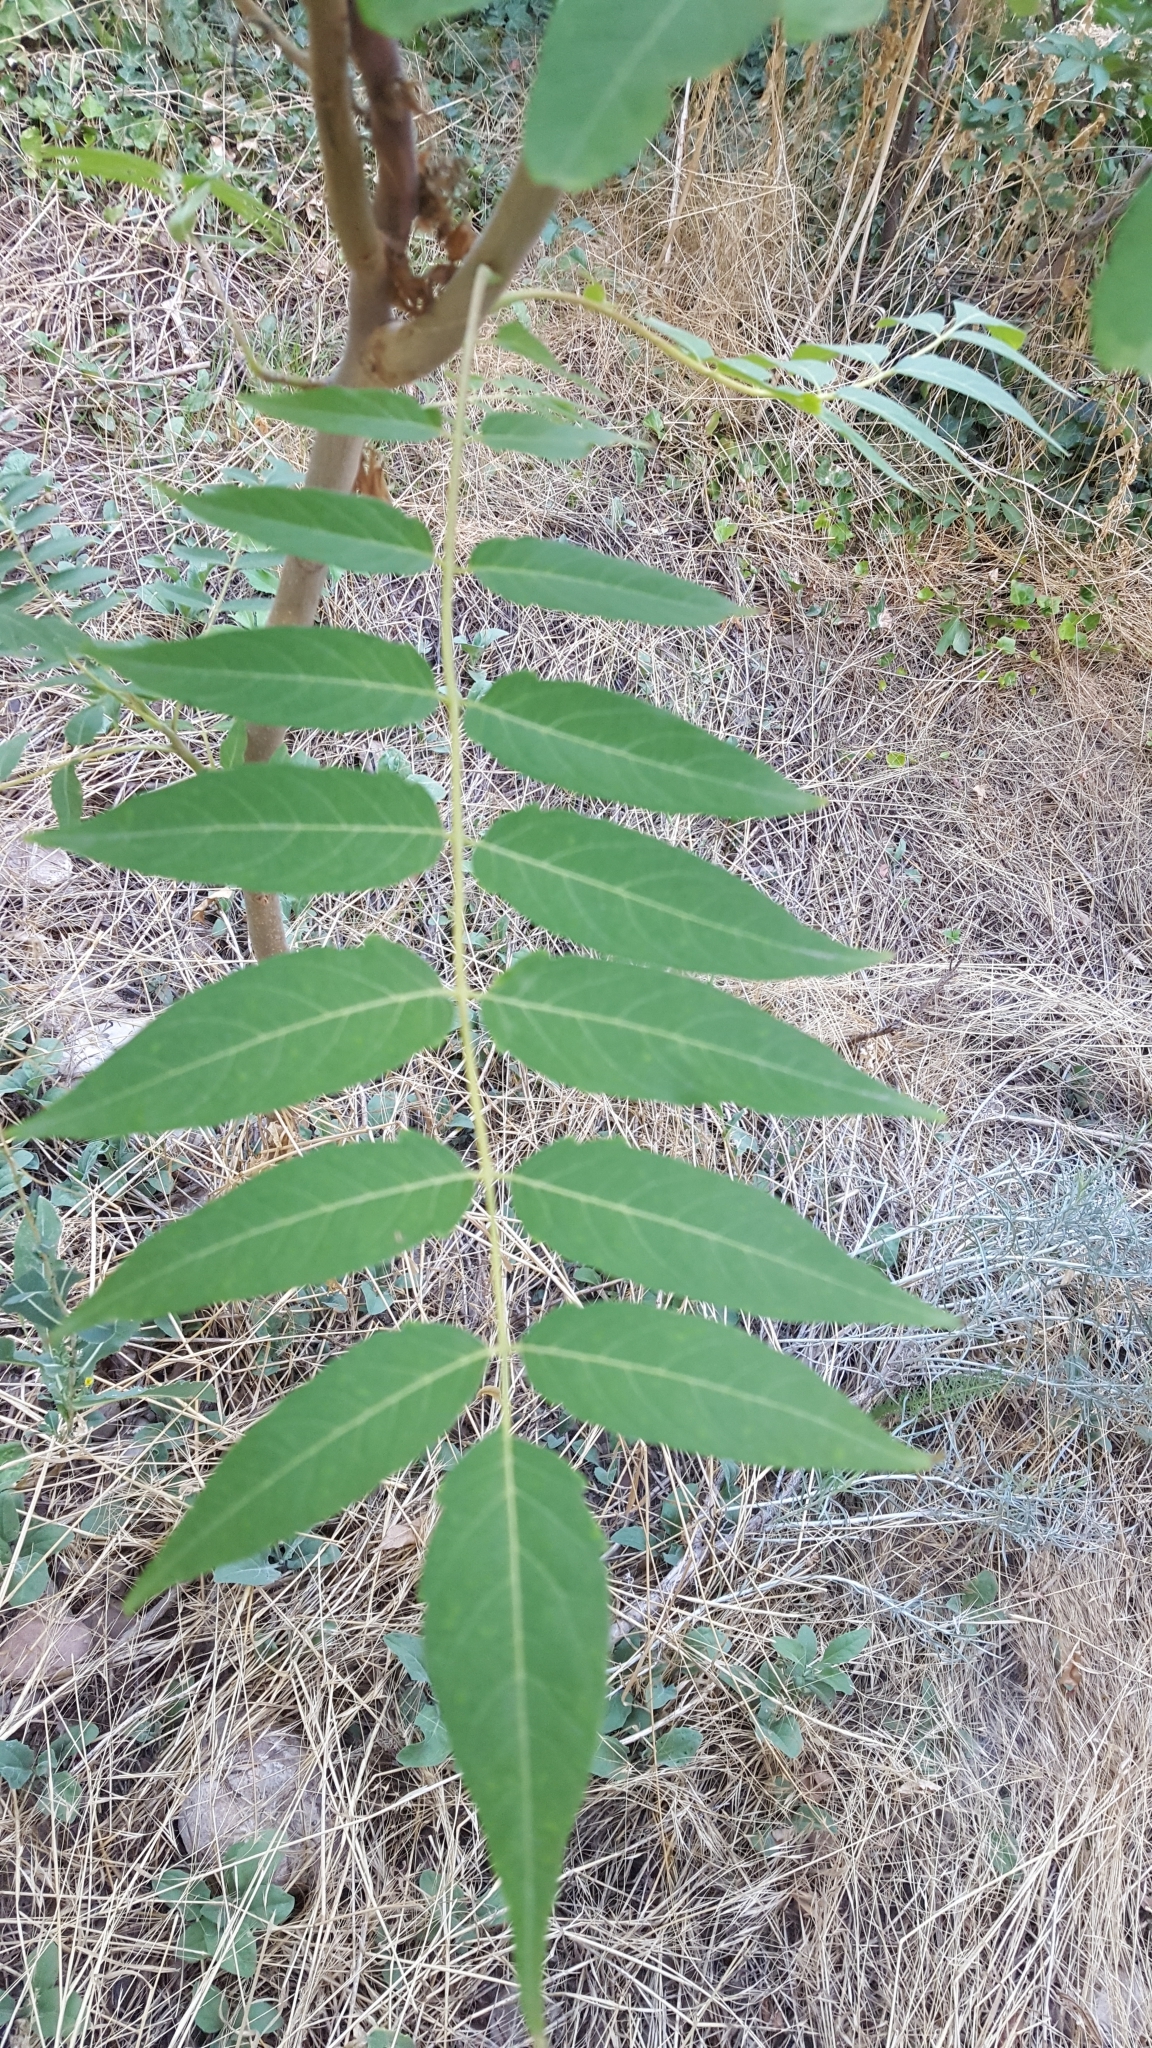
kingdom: Plantae
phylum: Tracheophyta
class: Magnoliopsida
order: Sapindales
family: Simaroubaceae
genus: Ailanthus
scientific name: Ailanthus altissima
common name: Tree-of-heaven
